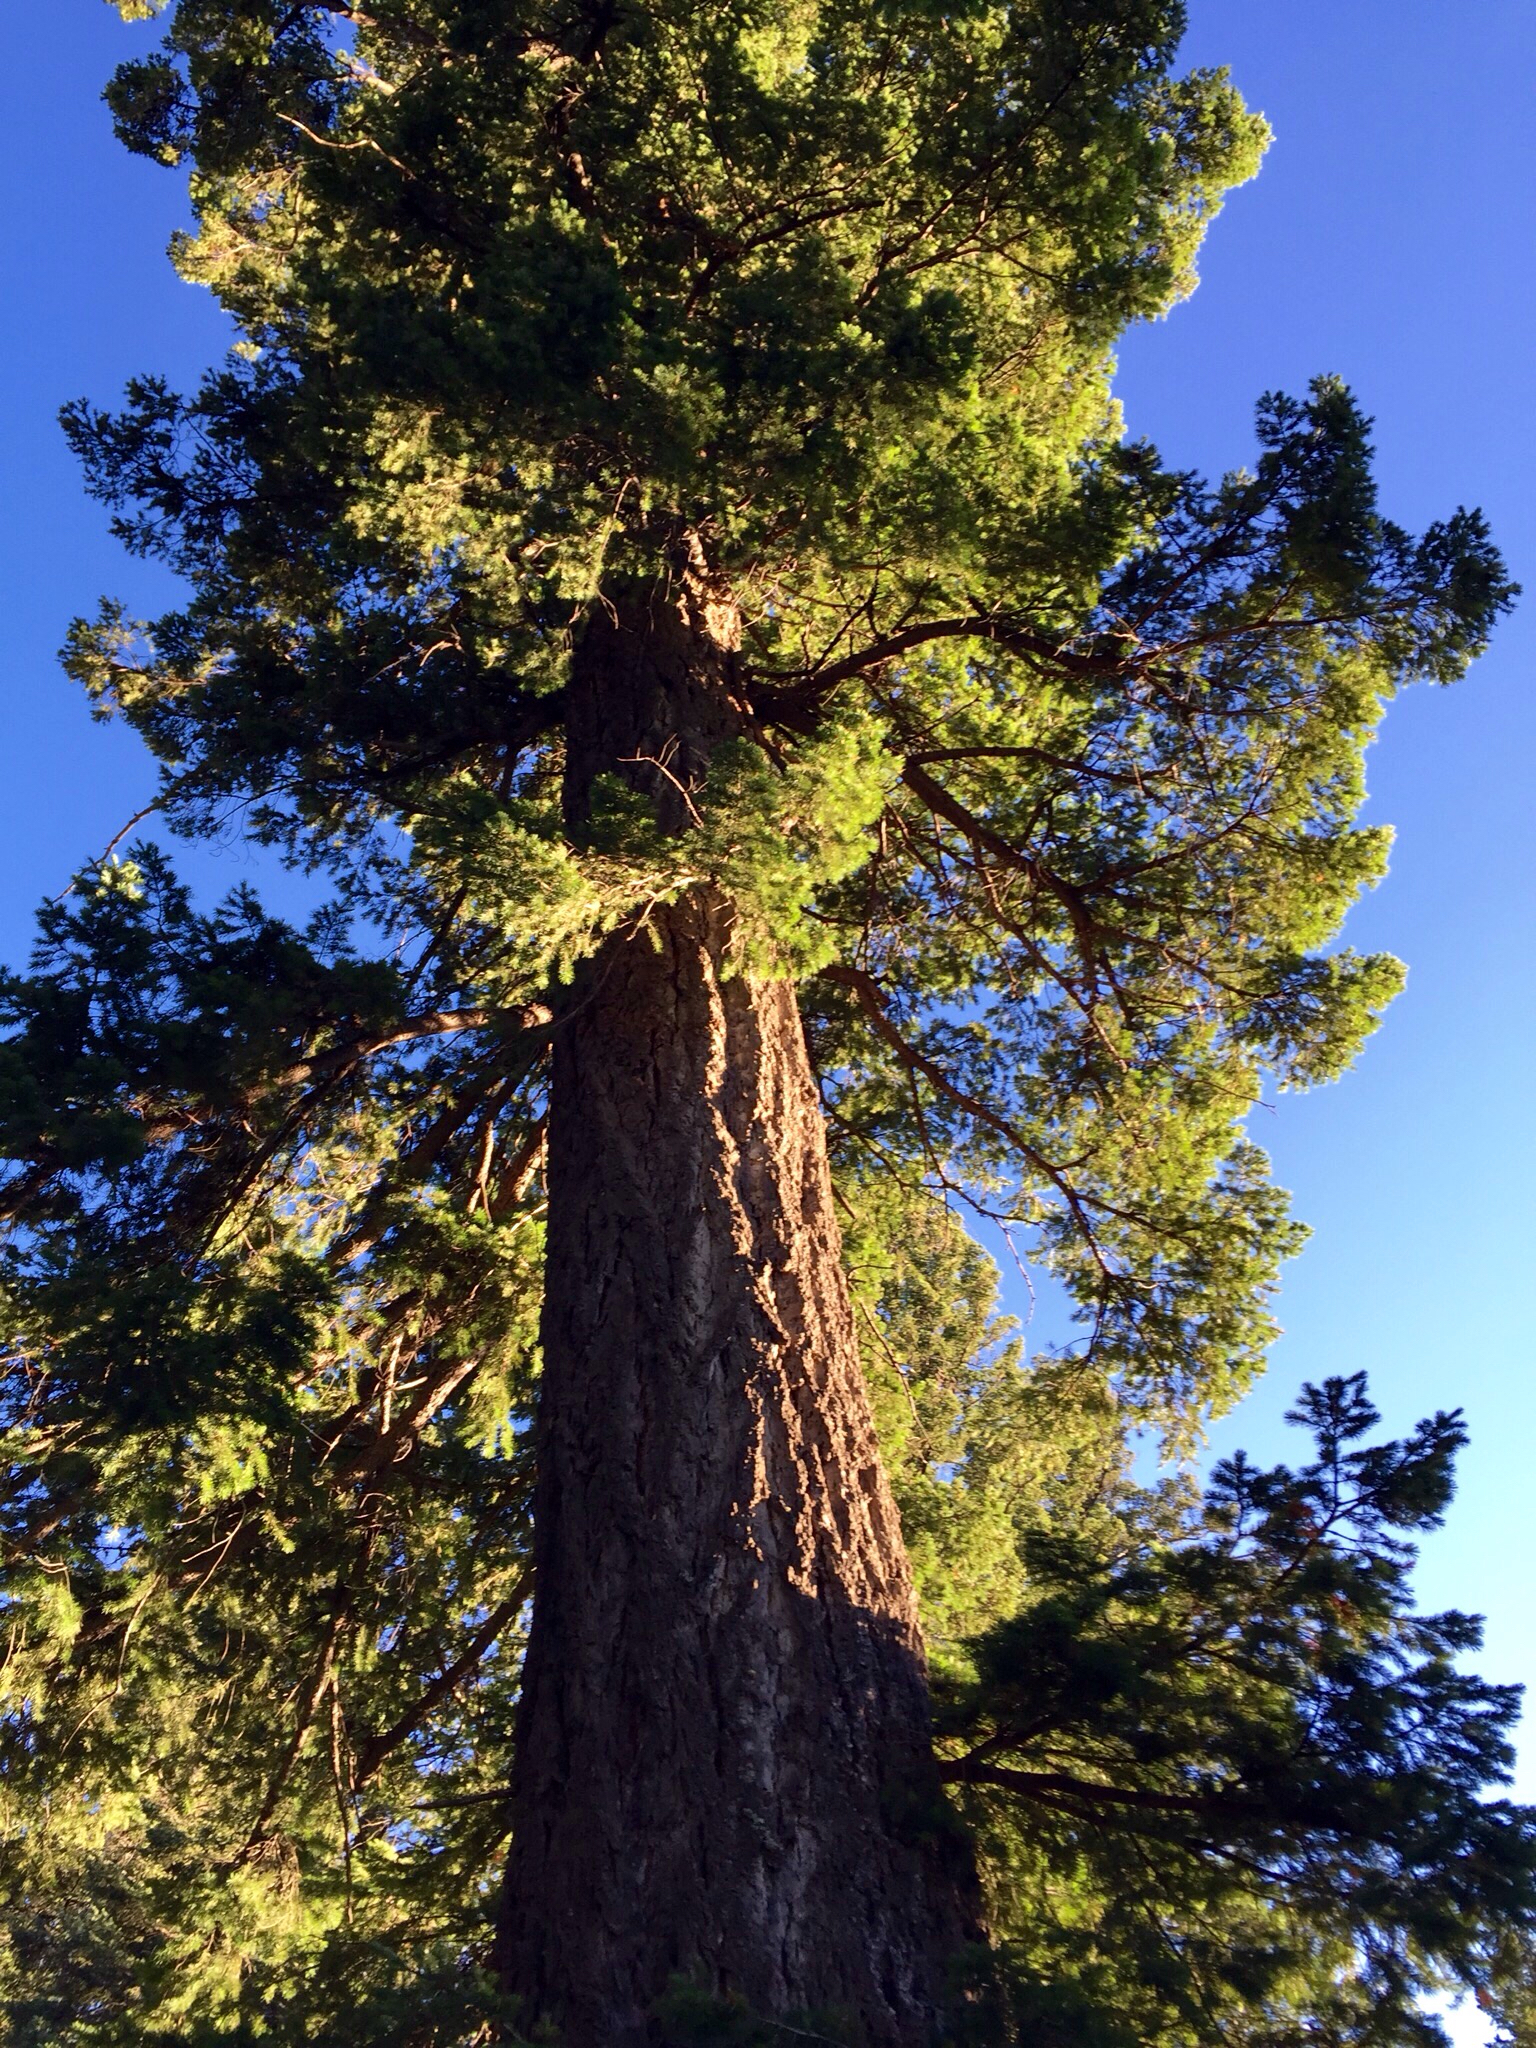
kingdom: Plantae
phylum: Tracheophyta
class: Pinopsida
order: Pinales
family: Pinaceae
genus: Pseudotsuga
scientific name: Pseudotsuga menziesii
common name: Douglas fir
